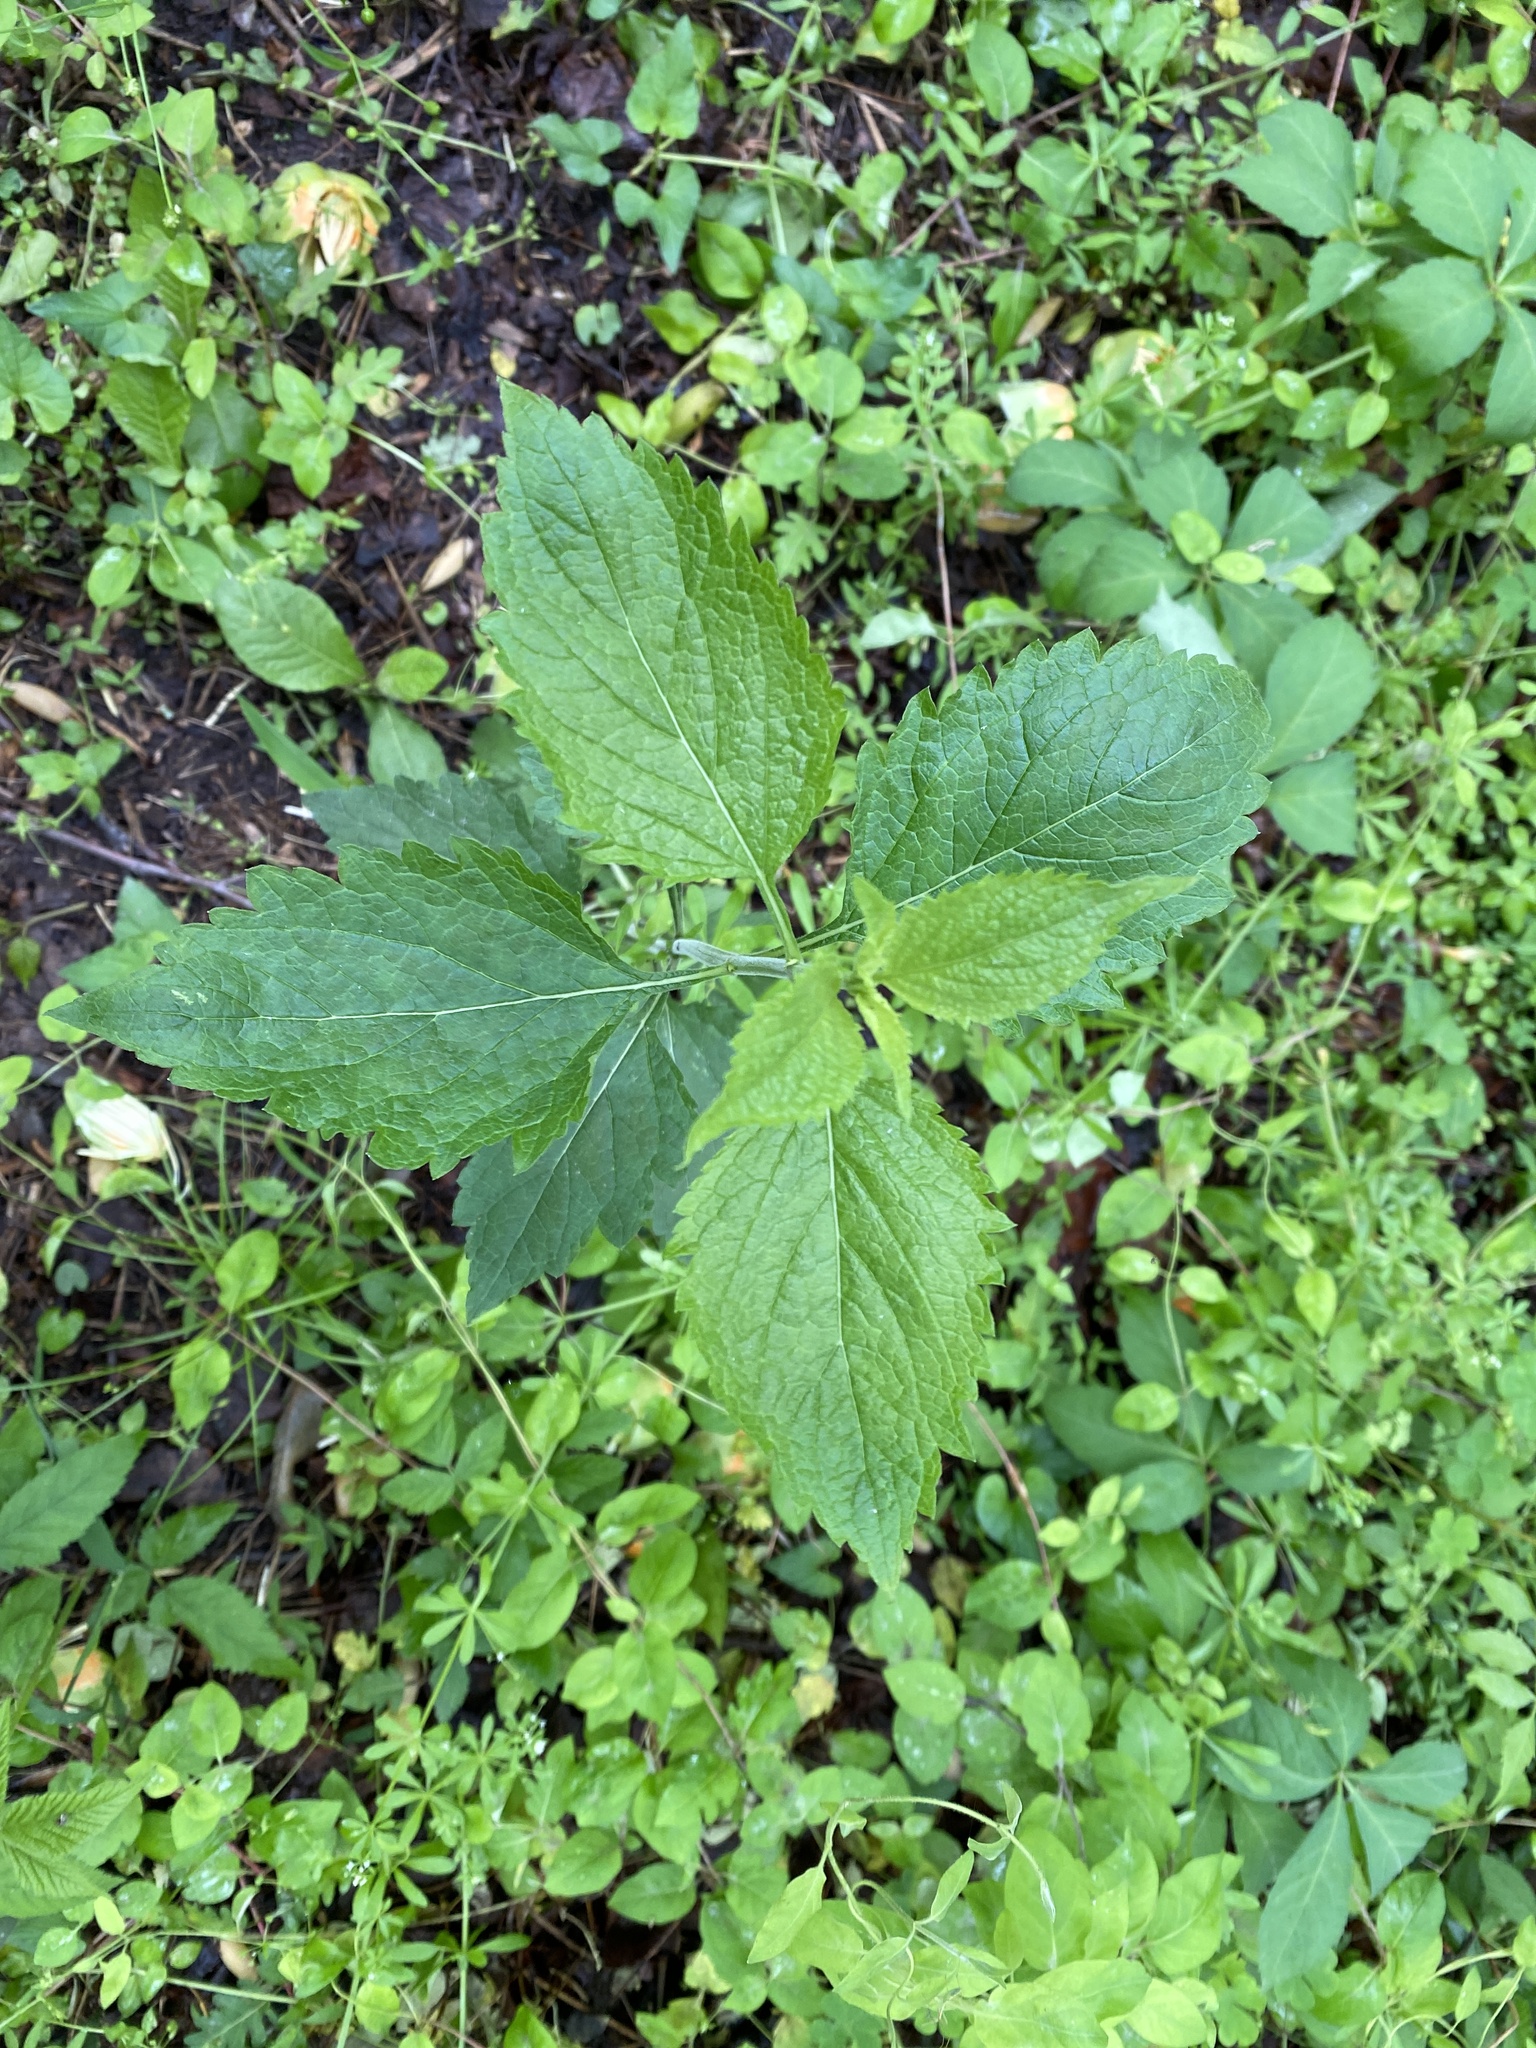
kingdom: Plantae
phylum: Tracheophyta
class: Magnoliopsida
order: Lamiales
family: Verbenaceae
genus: Verbena
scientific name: Verbena urticifolia
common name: Nettle-leaved vervain
